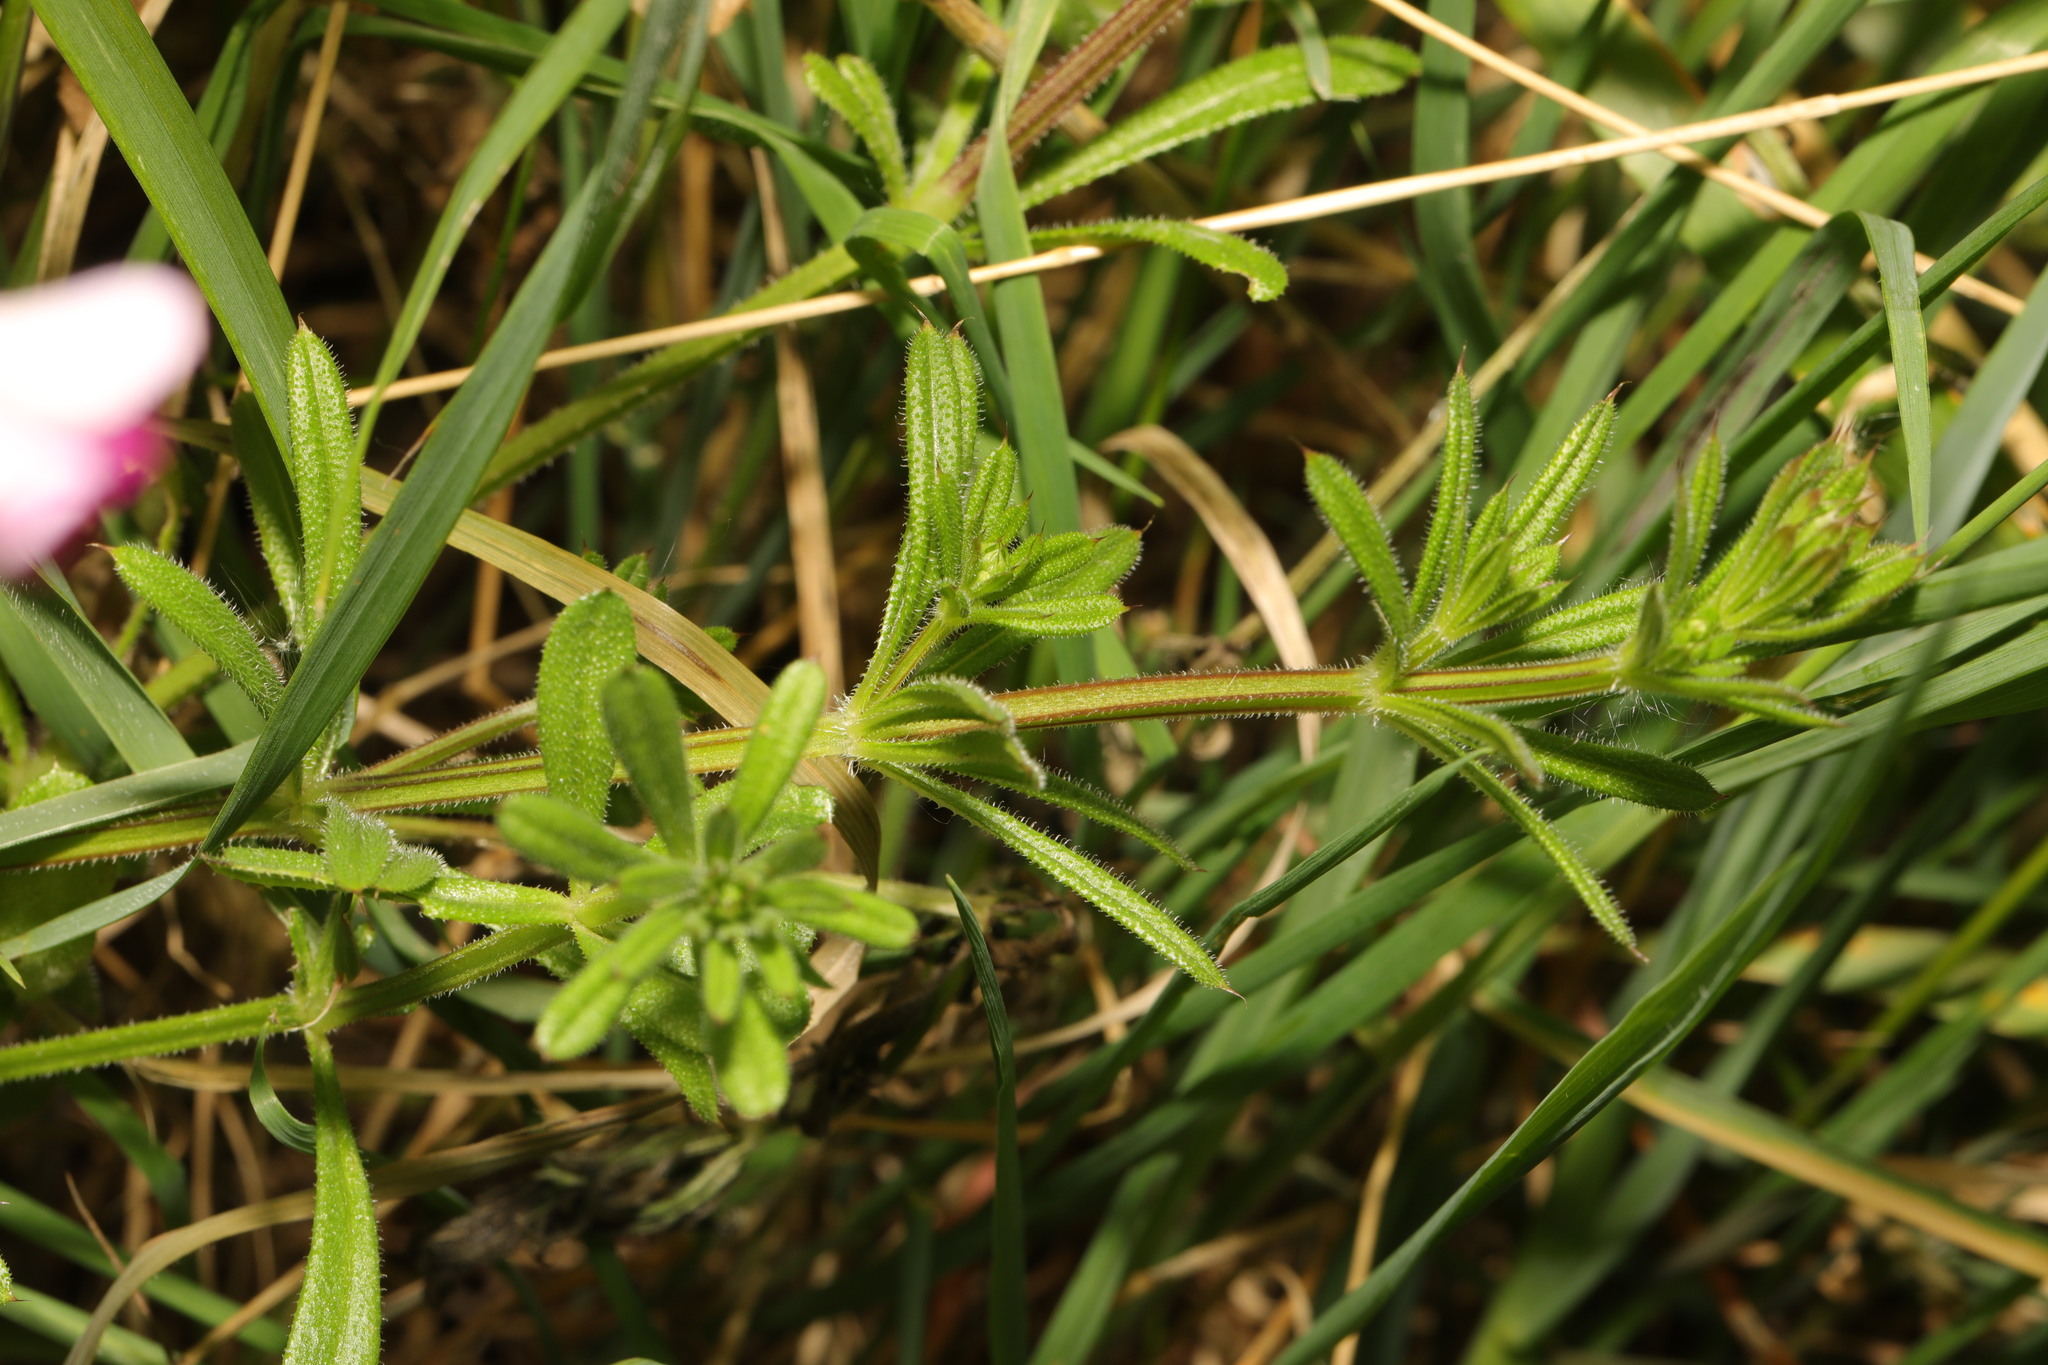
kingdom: Plantae
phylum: Tracheophyta
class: Magnoliopsida
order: Gentianales
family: Rubiaceae
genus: Galium
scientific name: Galium aparine
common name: Cleavers
